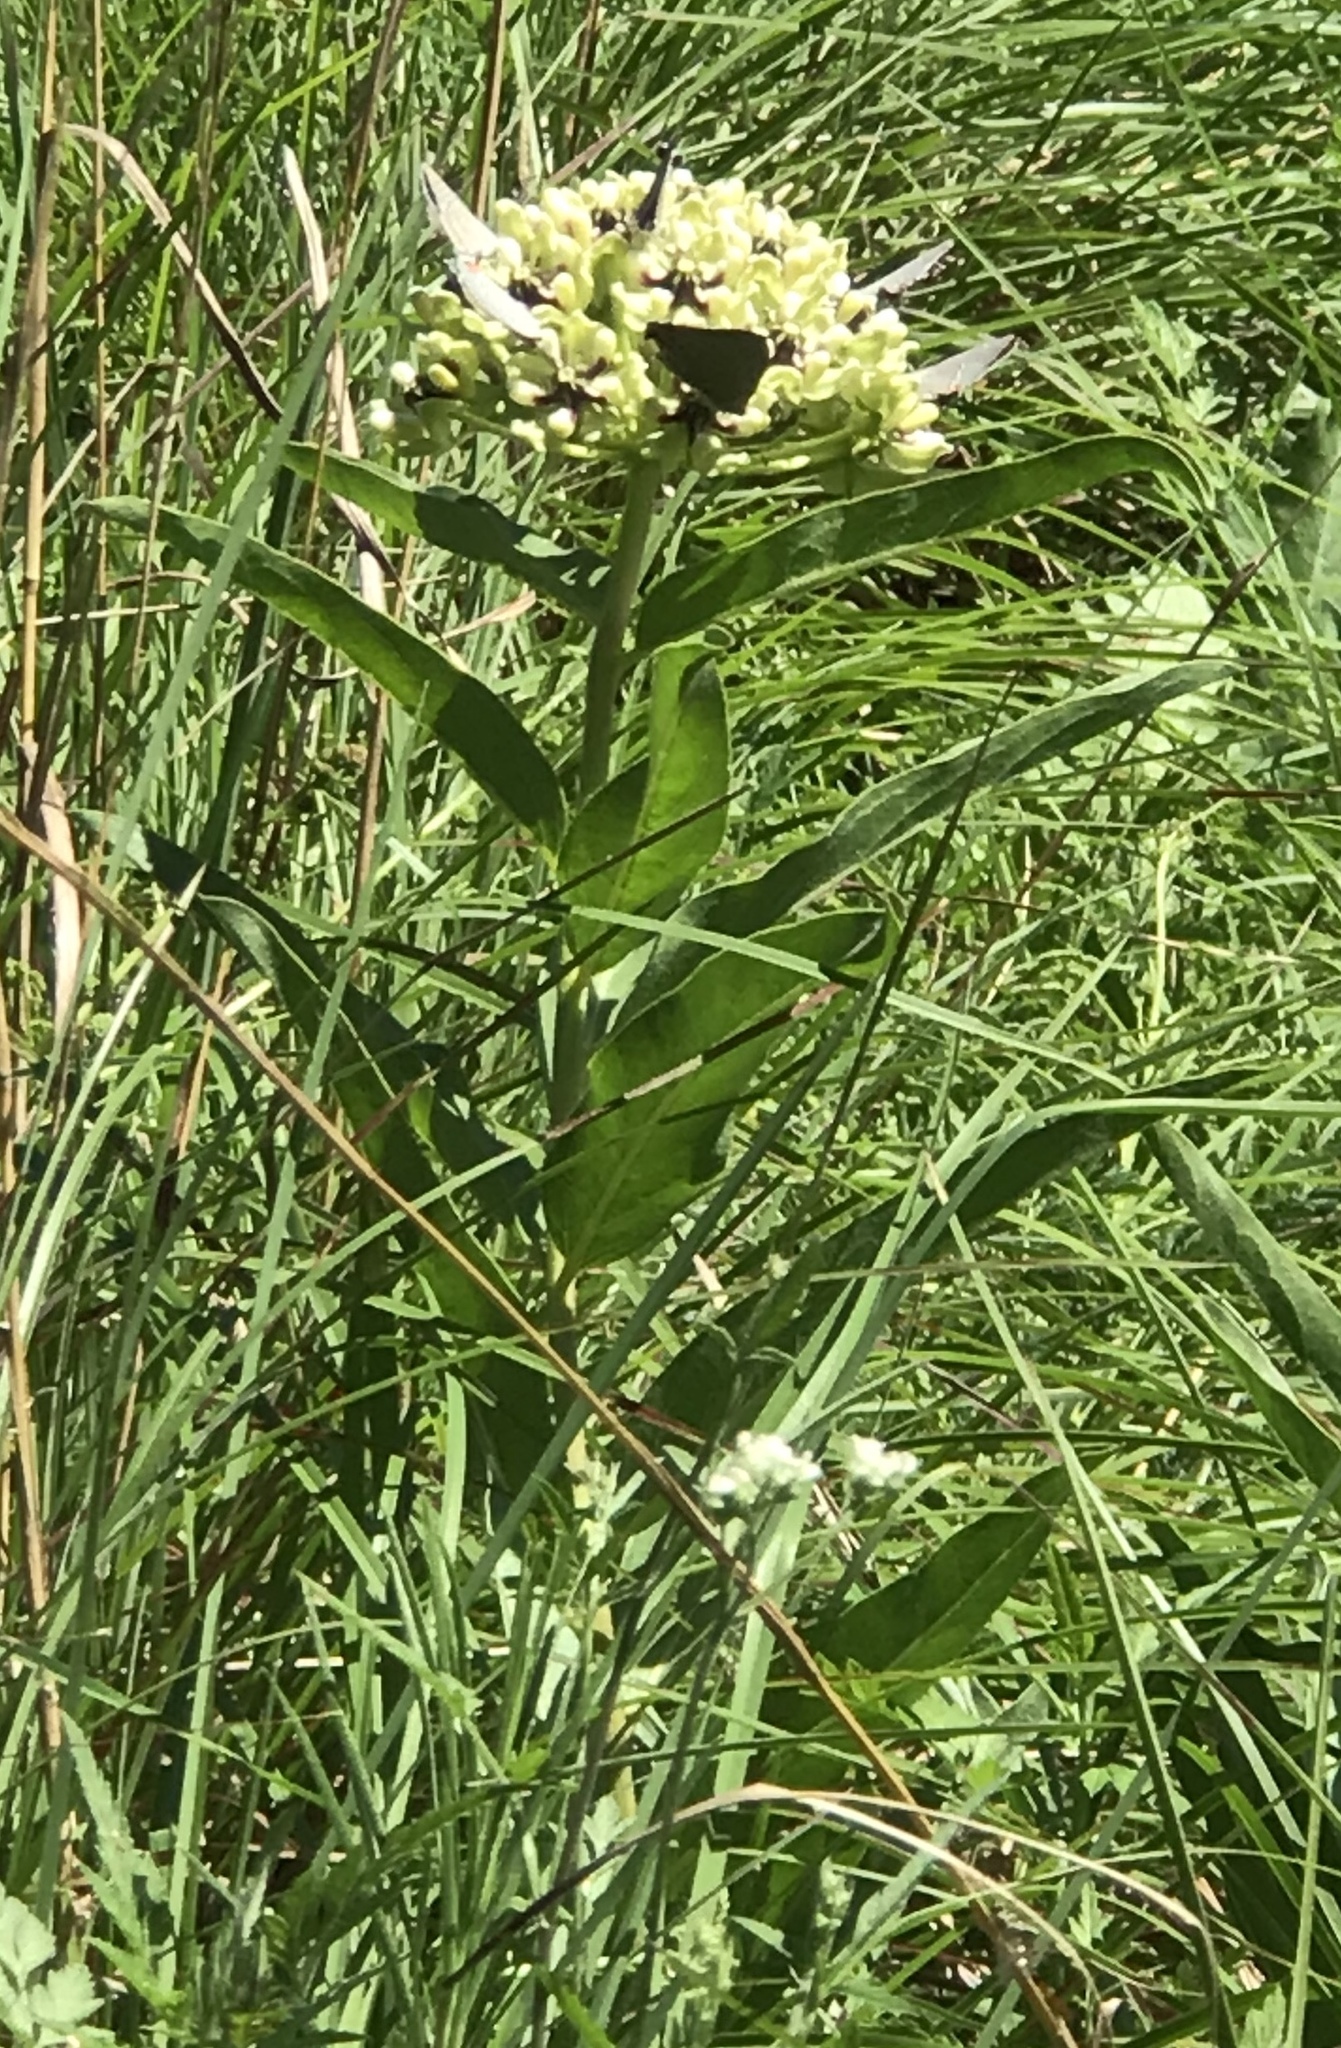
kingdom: Animalia
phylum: Arthropoda
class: Insecta
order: Lepidoptera
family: Lycaenidae
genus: Strymon
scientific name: Strymon melinus
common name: Gray hairstreak
